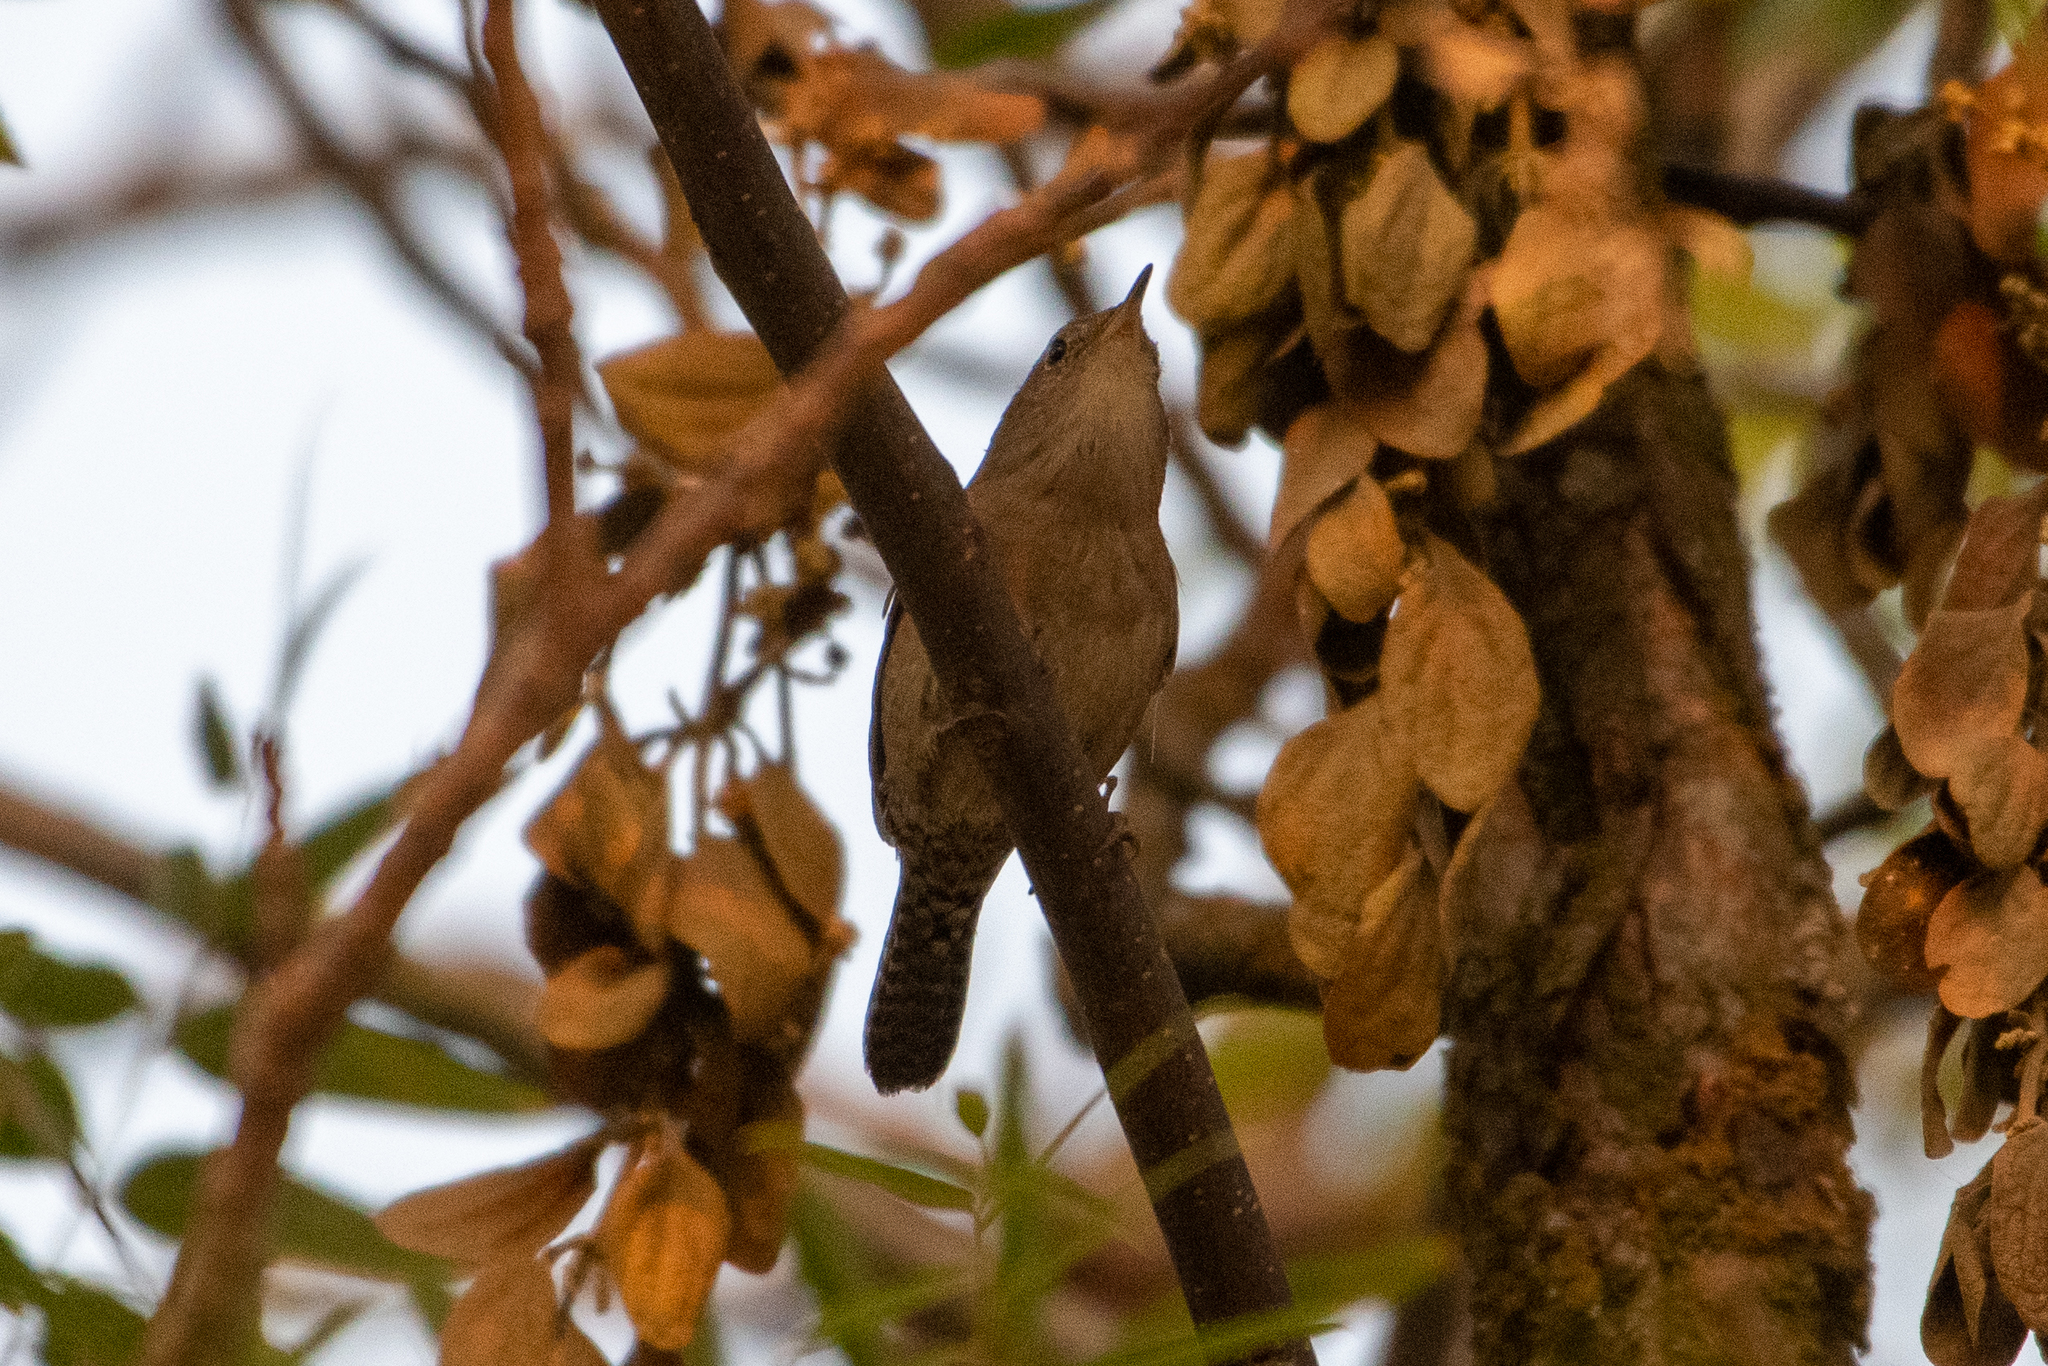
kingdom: Animalia
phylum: Chordata
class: Aves
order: Passeriformes
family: Troglodytidae
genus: Troglodytes
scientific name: Troglodytes aedon
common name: House wren
